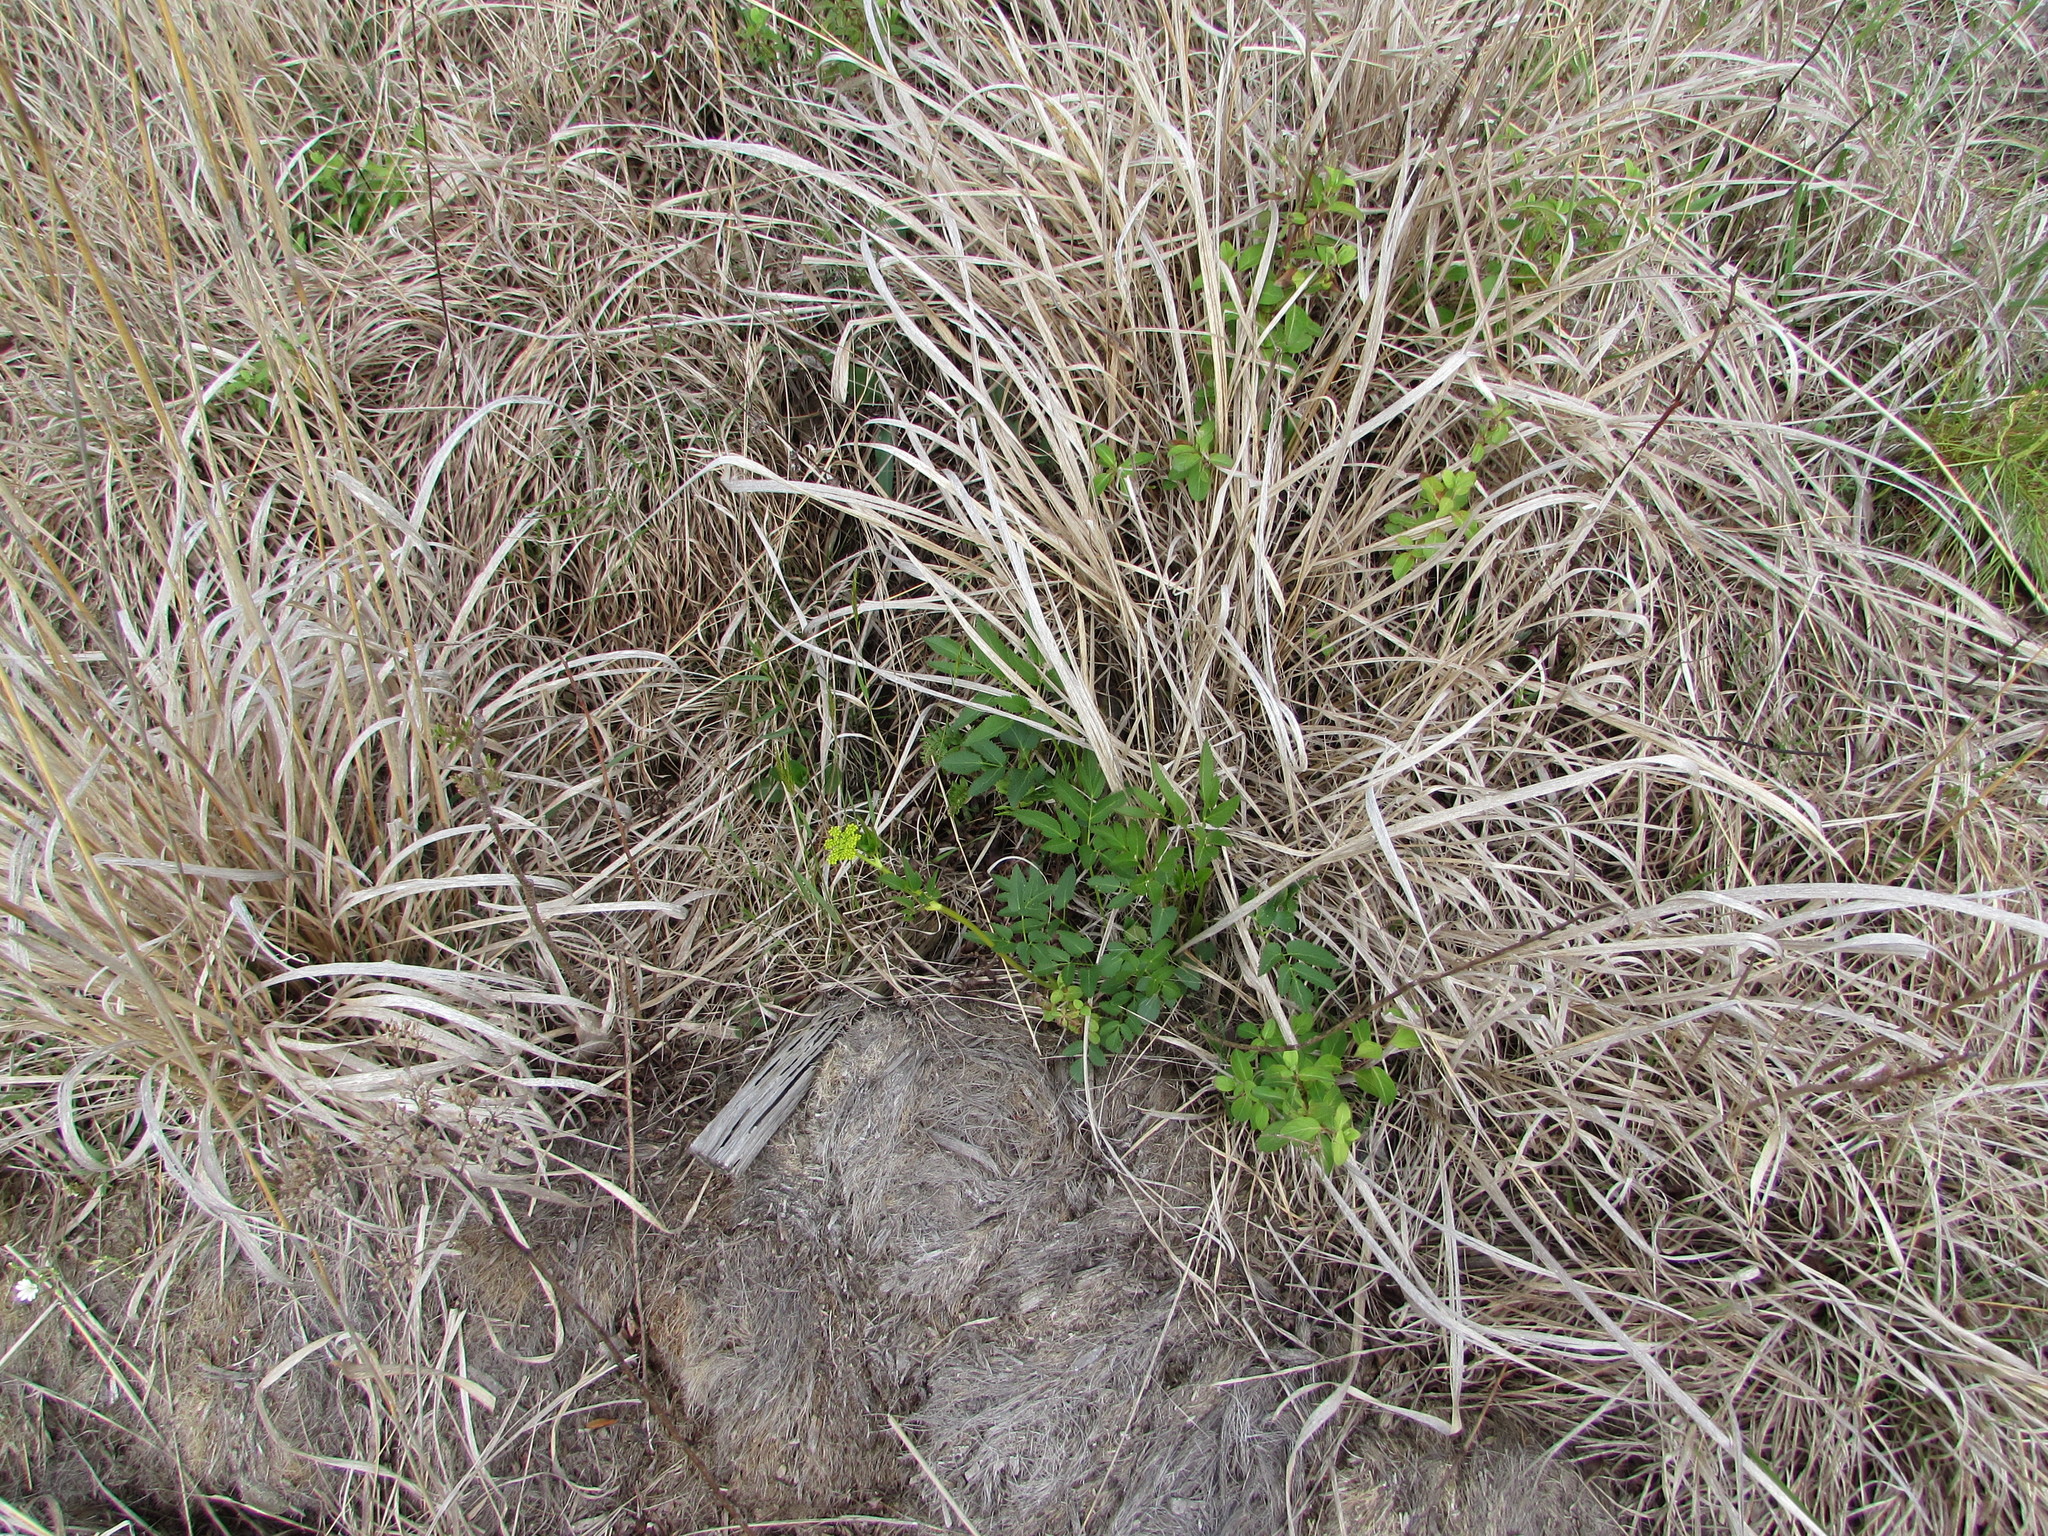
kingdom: Plantae
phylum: Tracheophyta
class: Magnoliopsida
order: Apiales
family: Apiaceae
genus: Zizia
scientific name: Zizia aurea
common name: Golden alexanders
